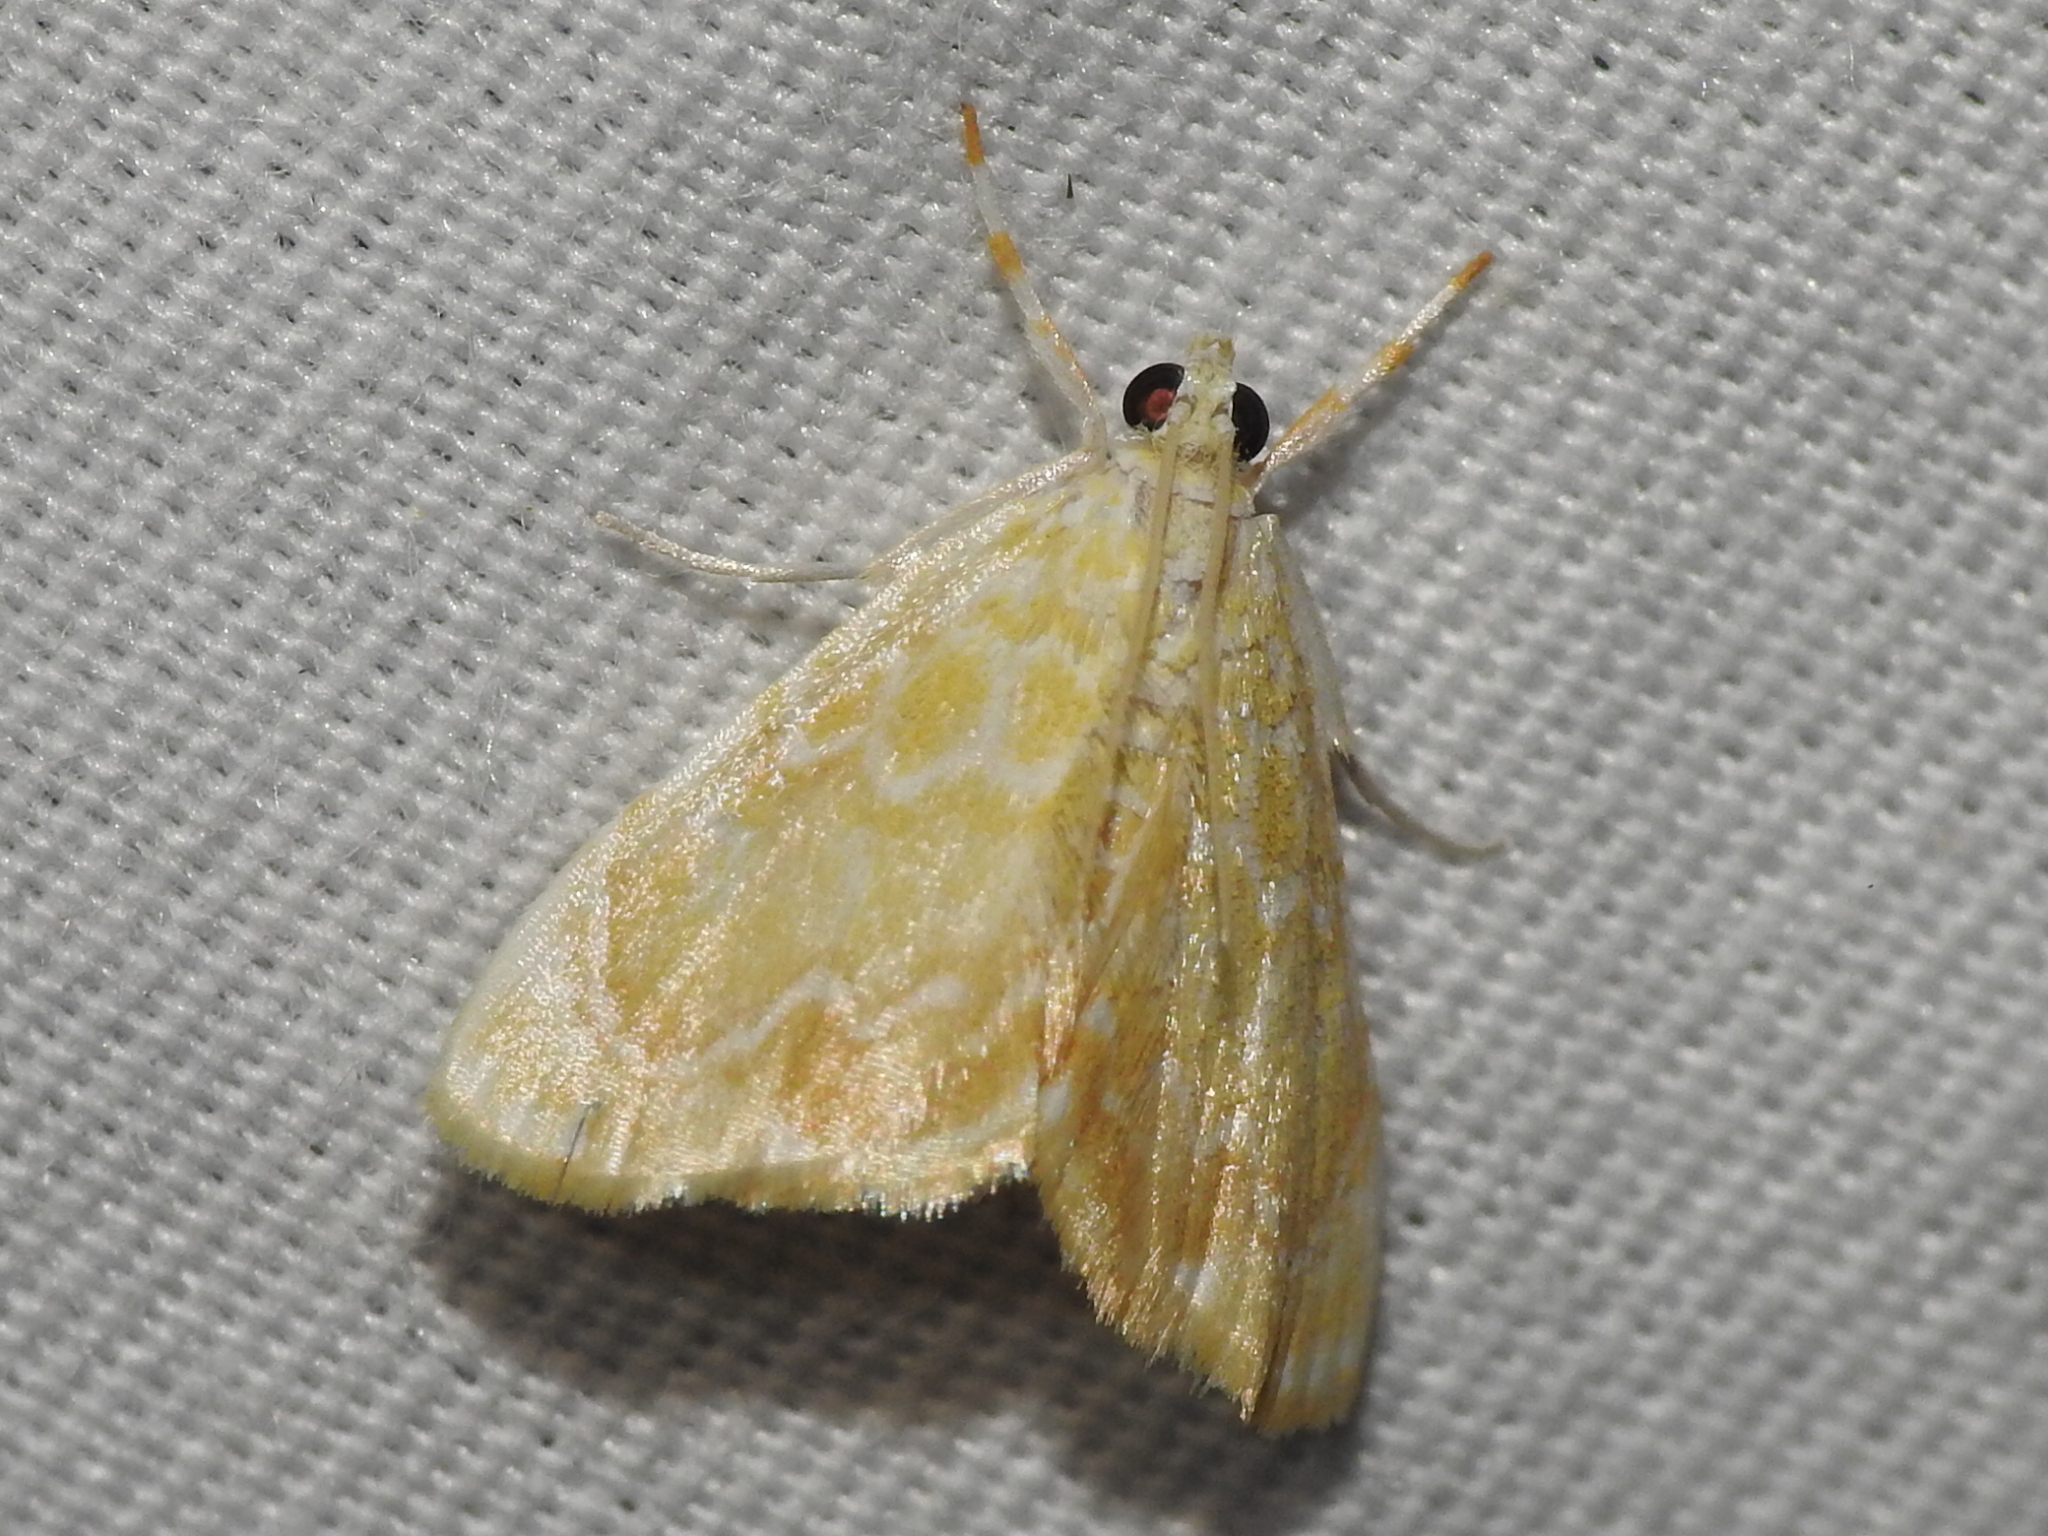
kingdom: Animalia
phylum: Arthropoda
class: Insecta
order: Lepidoptera
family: Crambidae
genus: Glaphyria
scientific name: Glaphyria glaphyralis
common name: Common glaphyria moth
